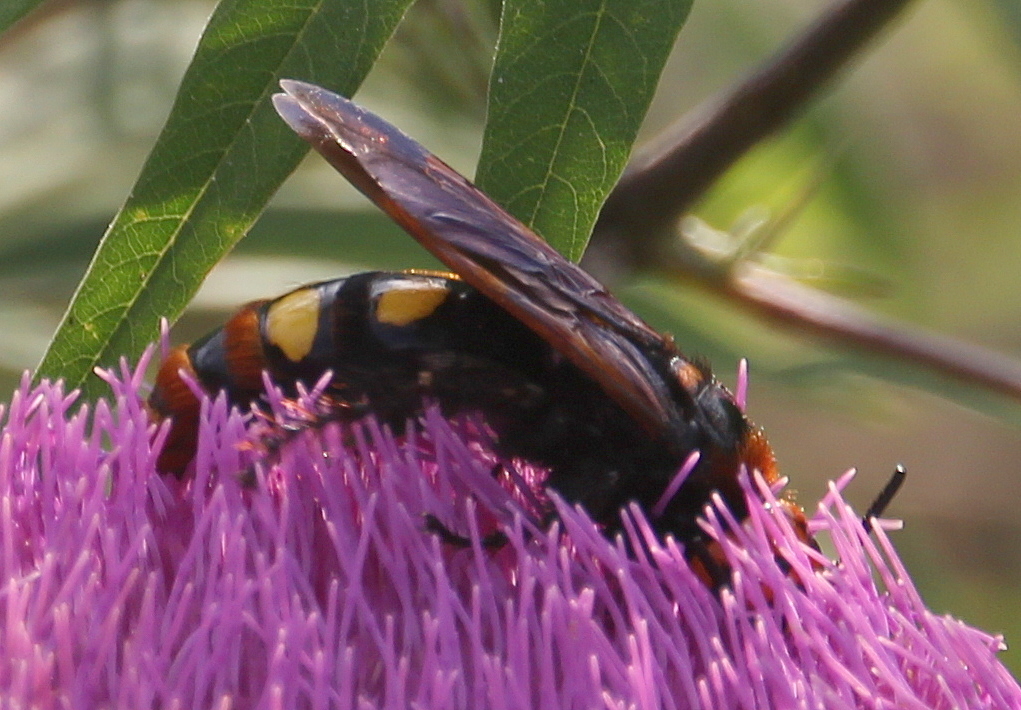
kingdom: Animalia
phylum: Arthropoda
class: Insecta
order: Hymenoptera
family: Scoliidae
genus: Megascolia
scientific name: Megascolia maculata
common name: Mammoth wasp
